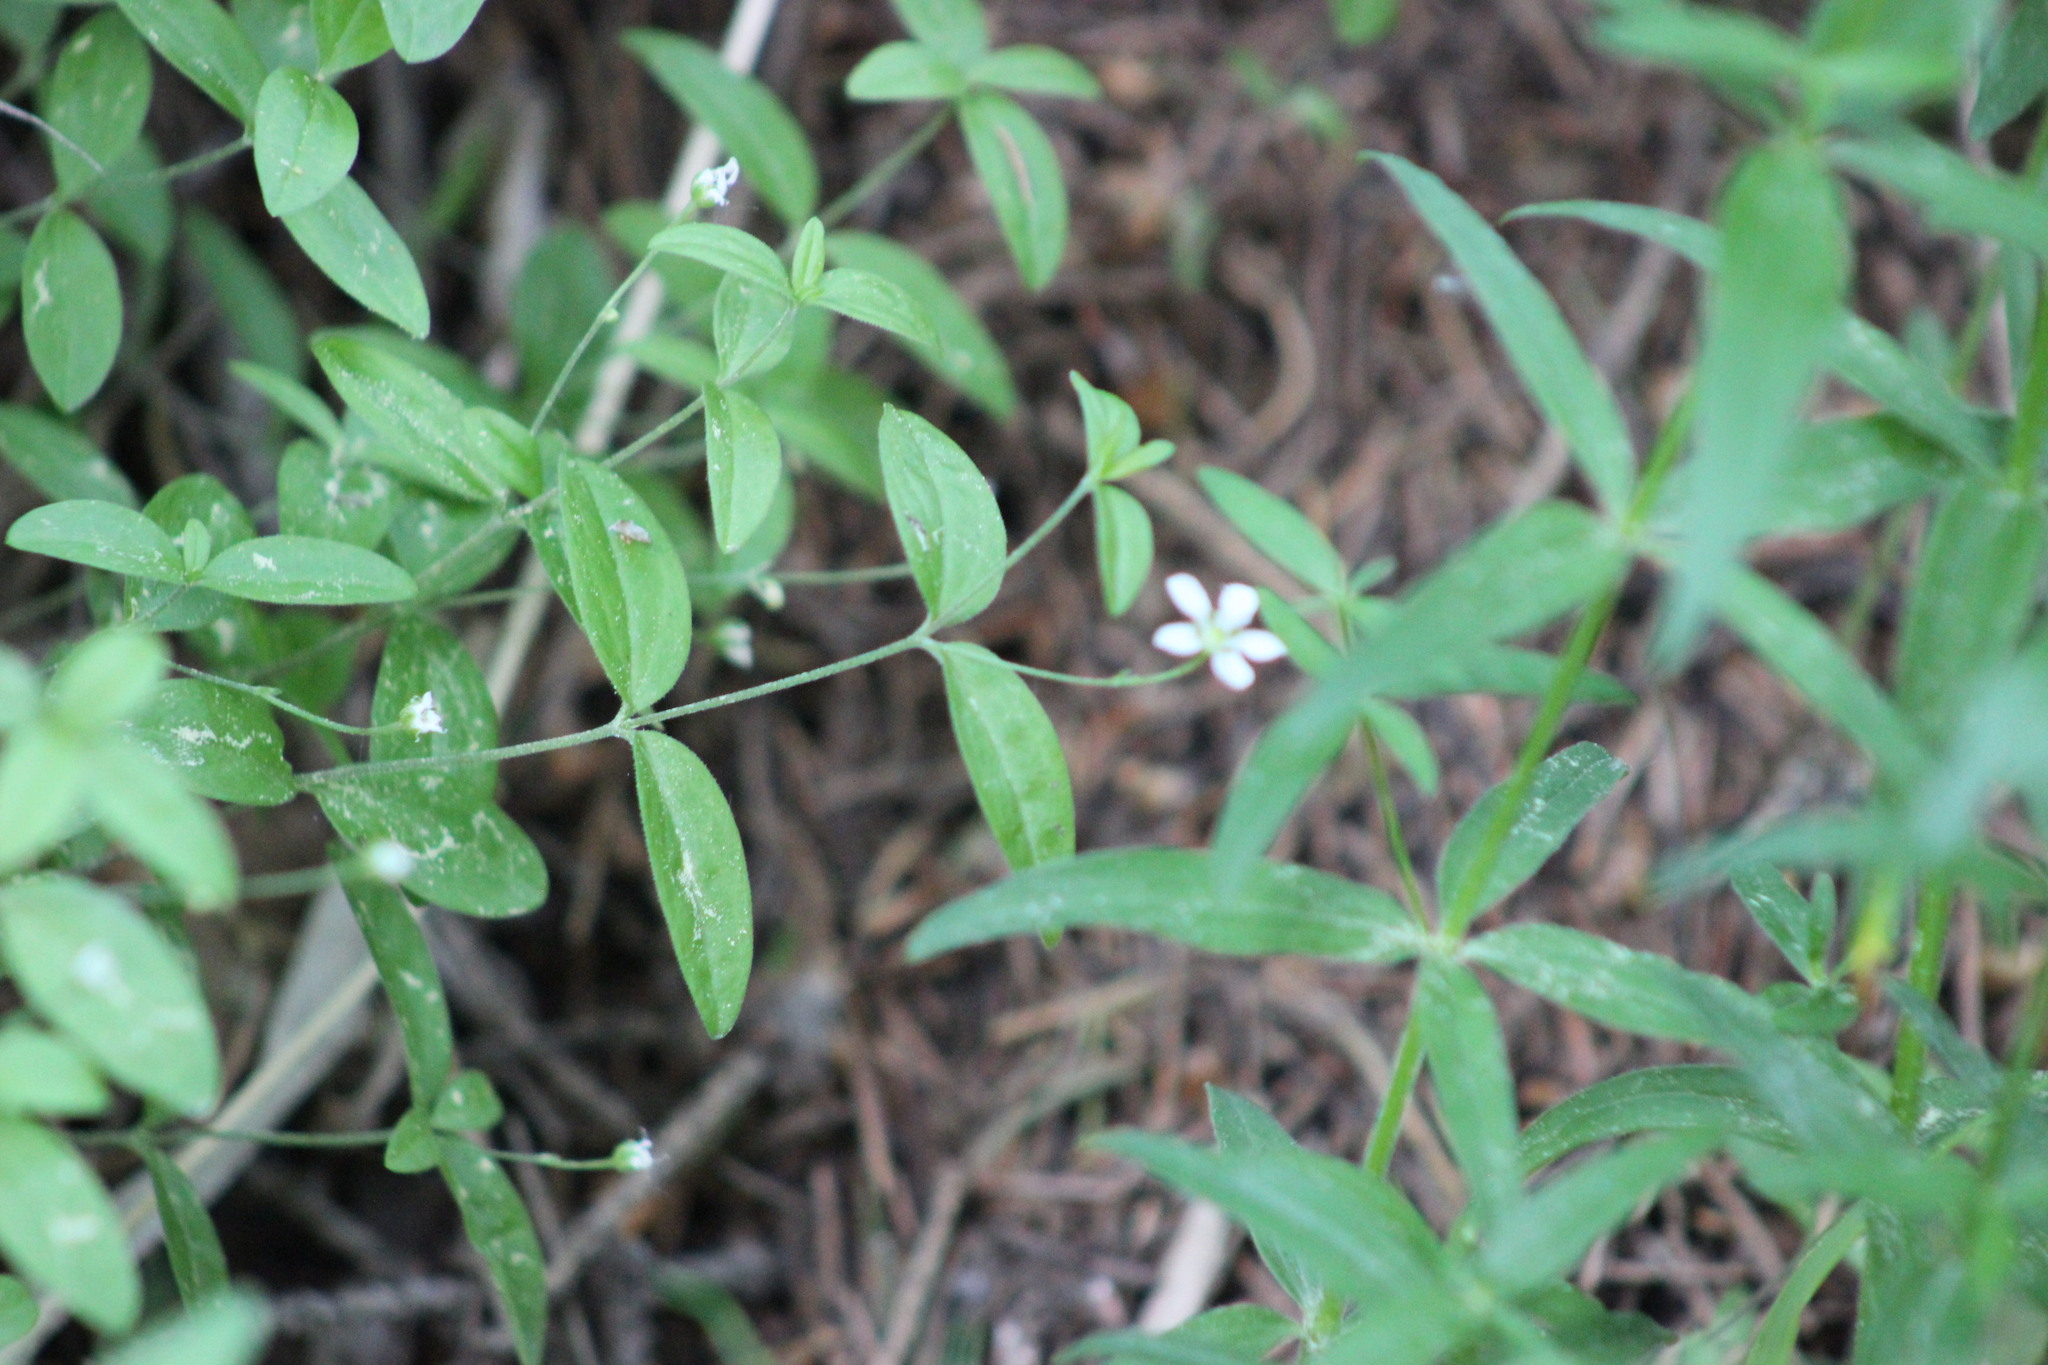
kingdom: Plantae
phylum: Tracheophyta
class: Magnoliopsida
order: Caryophyllales
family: Caryophyllaceae
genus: Moehringia
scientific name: Moehringia lateriflora
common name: Blunt-leaved sandwort
